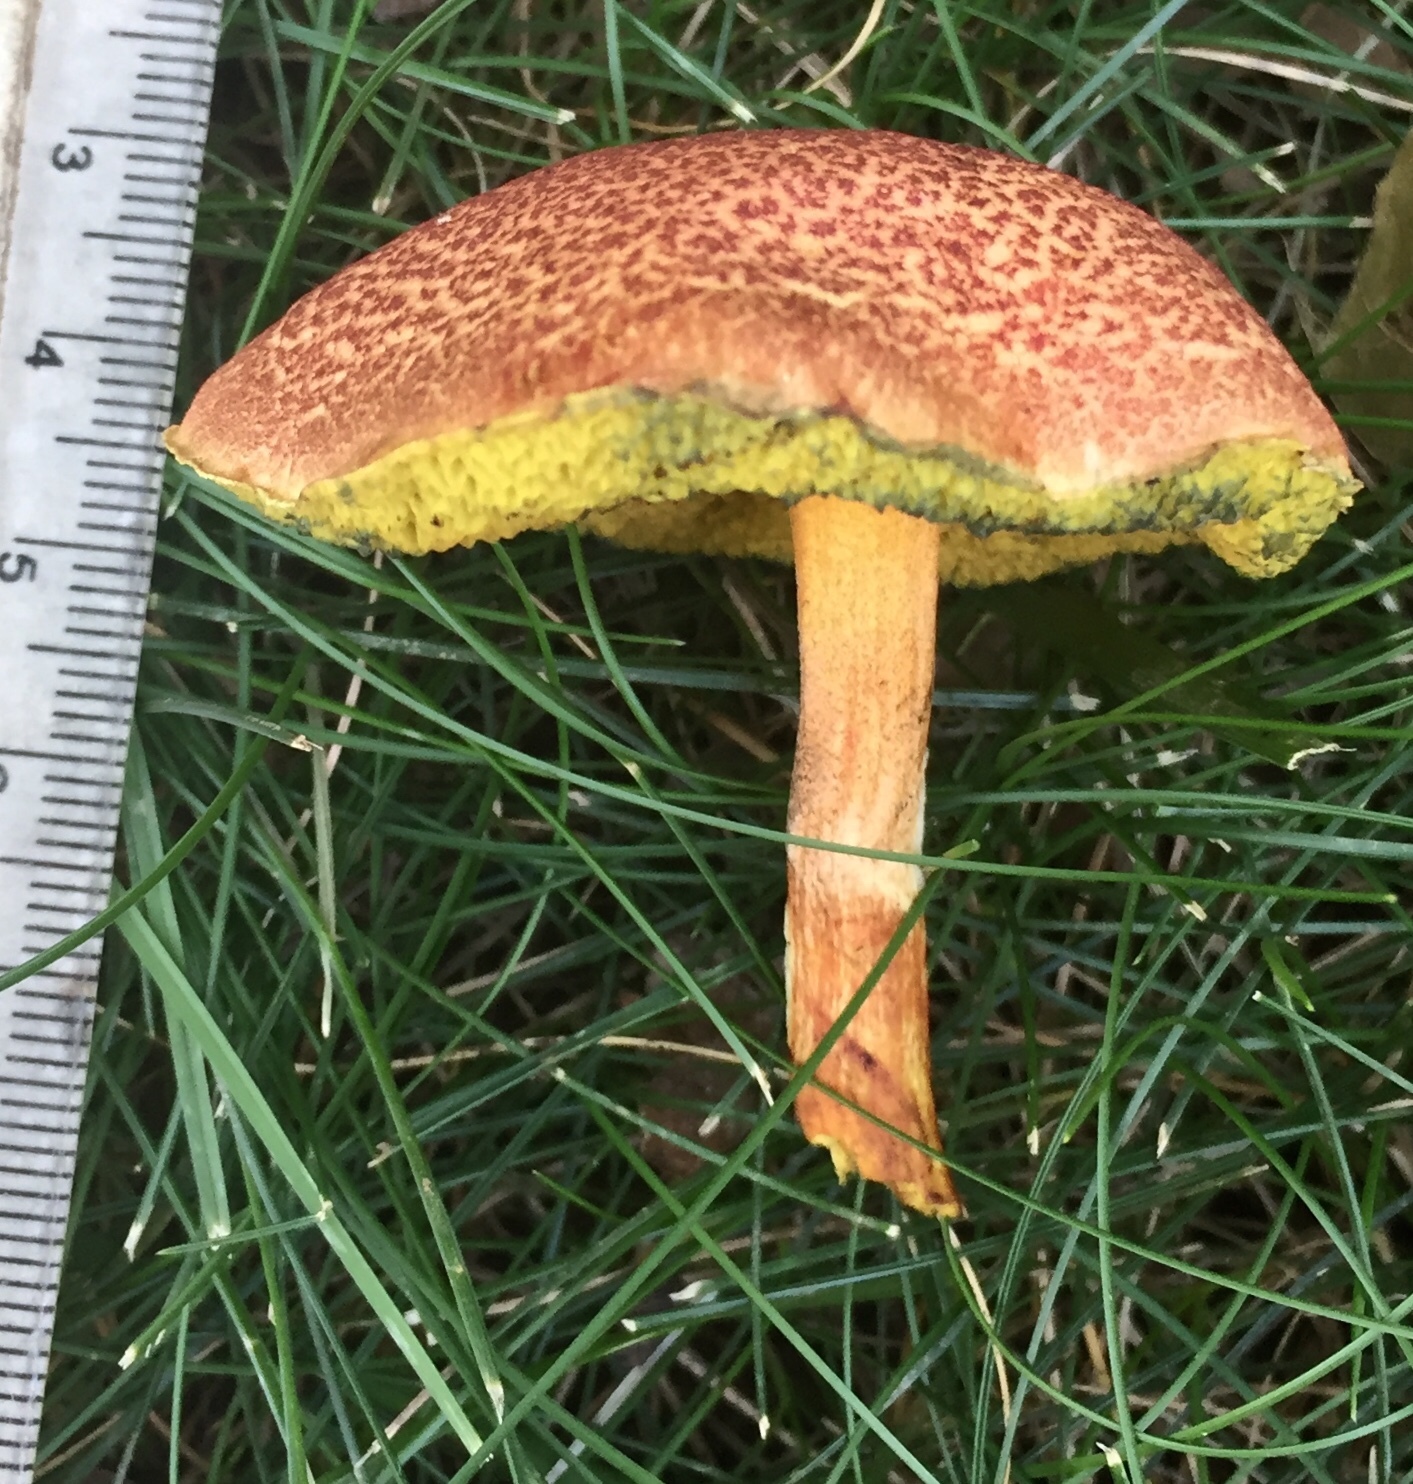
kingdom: Fungi
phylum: Basidiomycota
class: Agaricomycetes
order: Boletales
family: Boletaceae
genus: Hortiboletus
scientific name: Hortiboletus rubellus
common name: Ruby bolete
